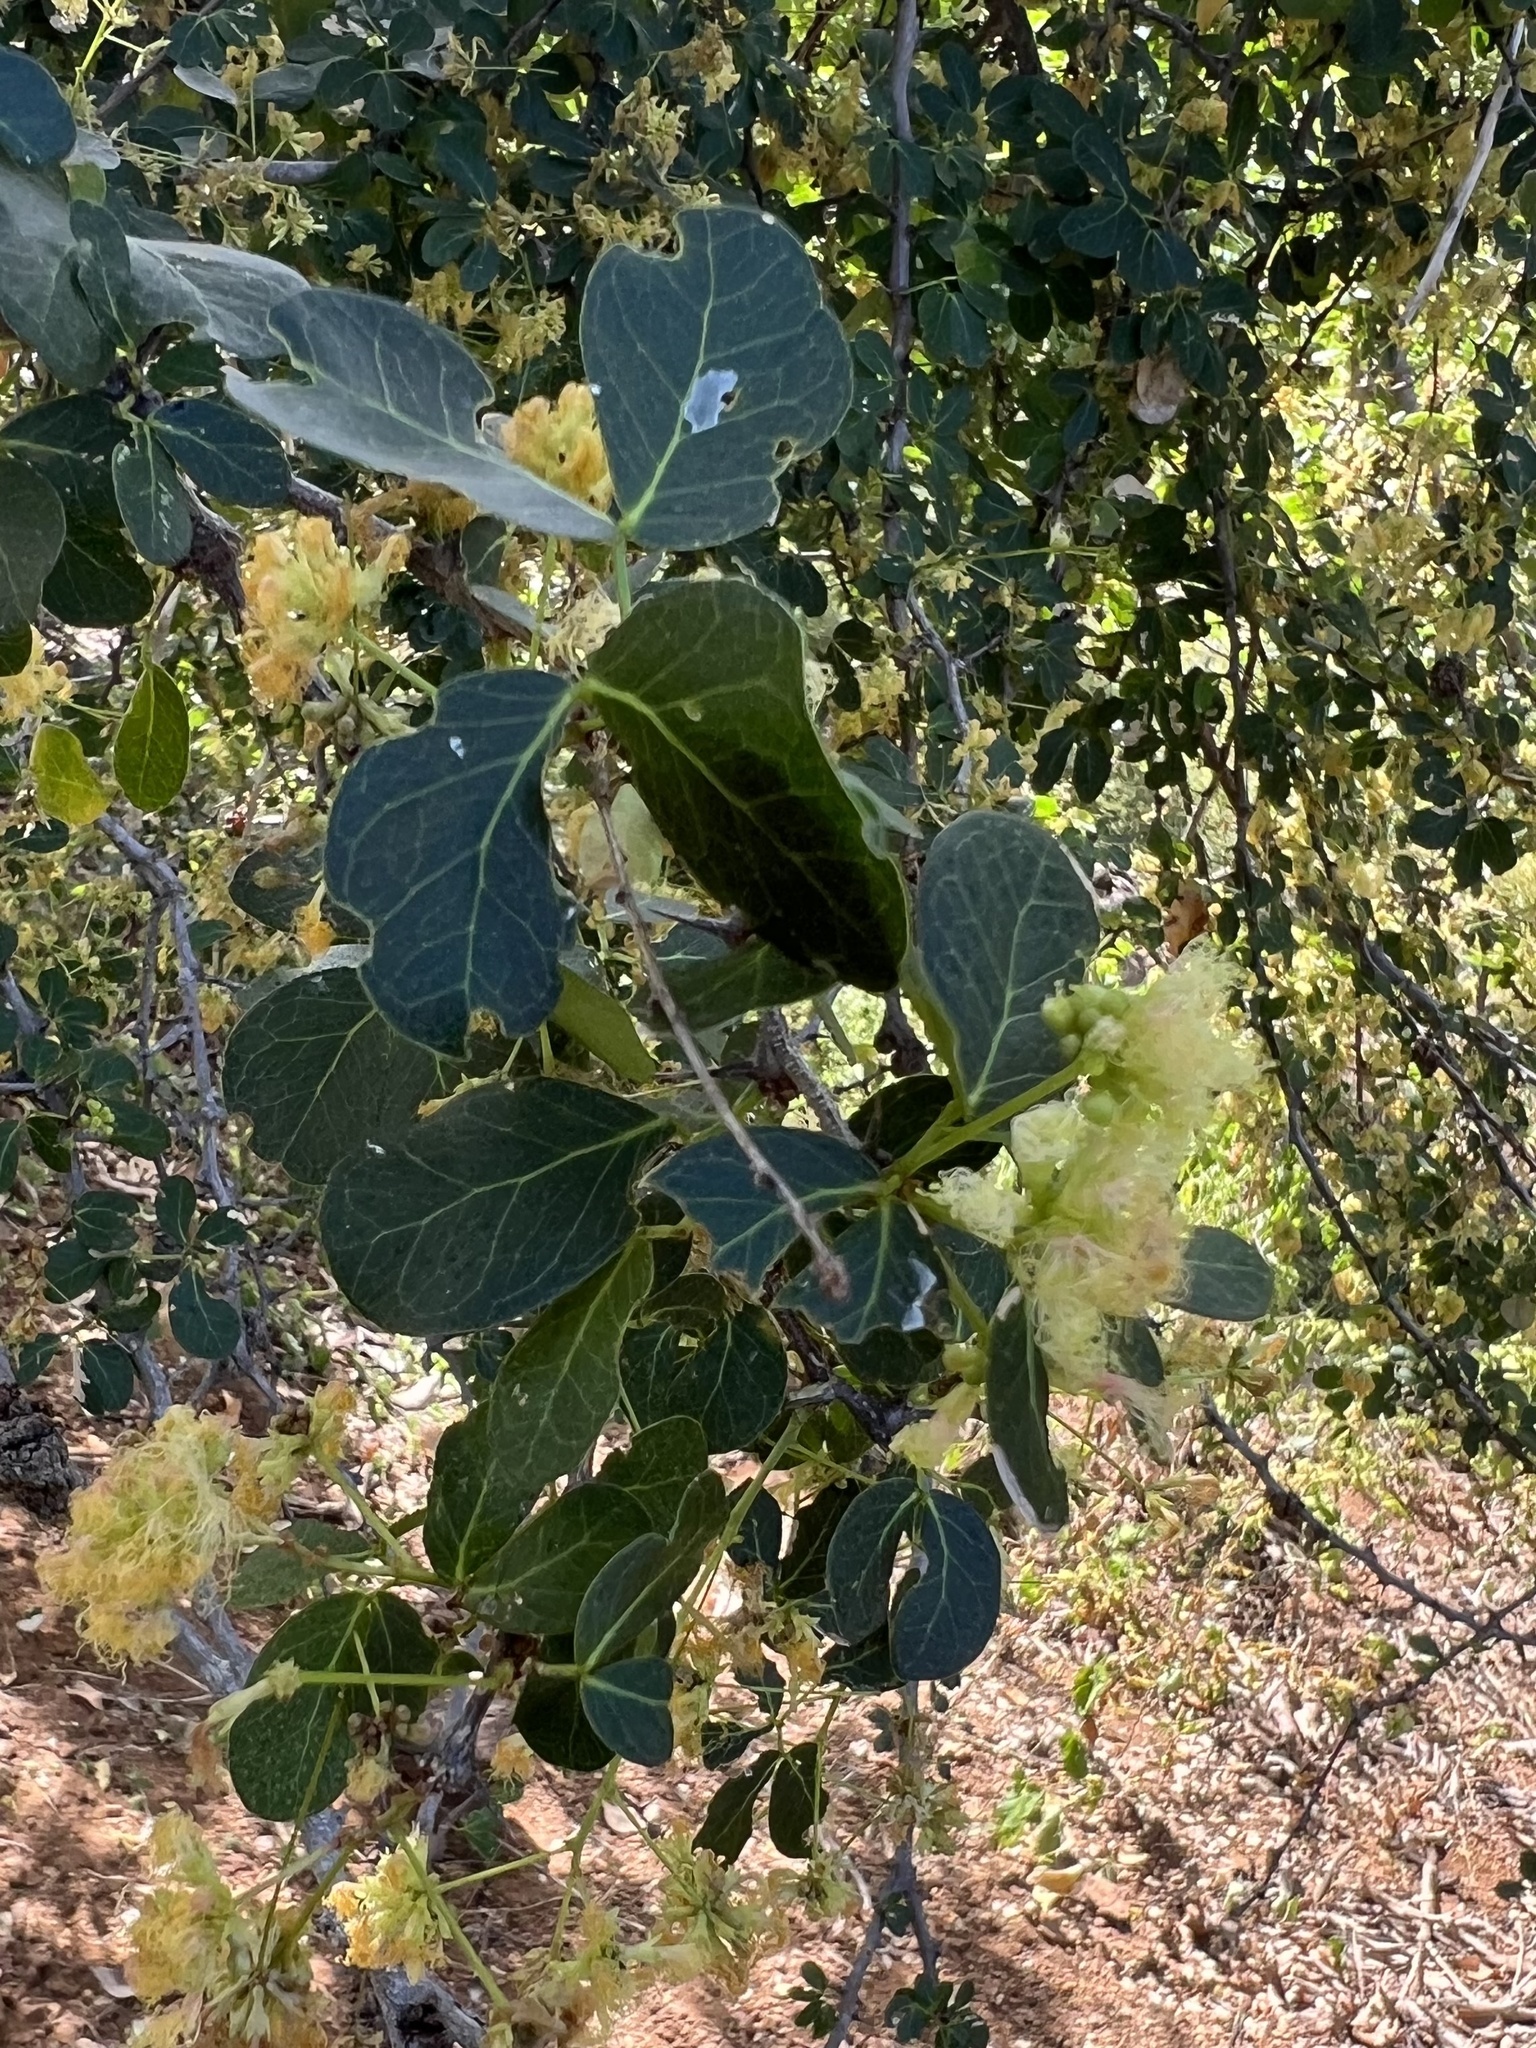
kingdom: Plantae
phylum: Tracheophyta
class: Magnoliopsida
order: Fabales
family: Fabaceae
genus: Pithecellobium
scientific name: Pithecellobium unguis-cati
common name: Cat's-claw
